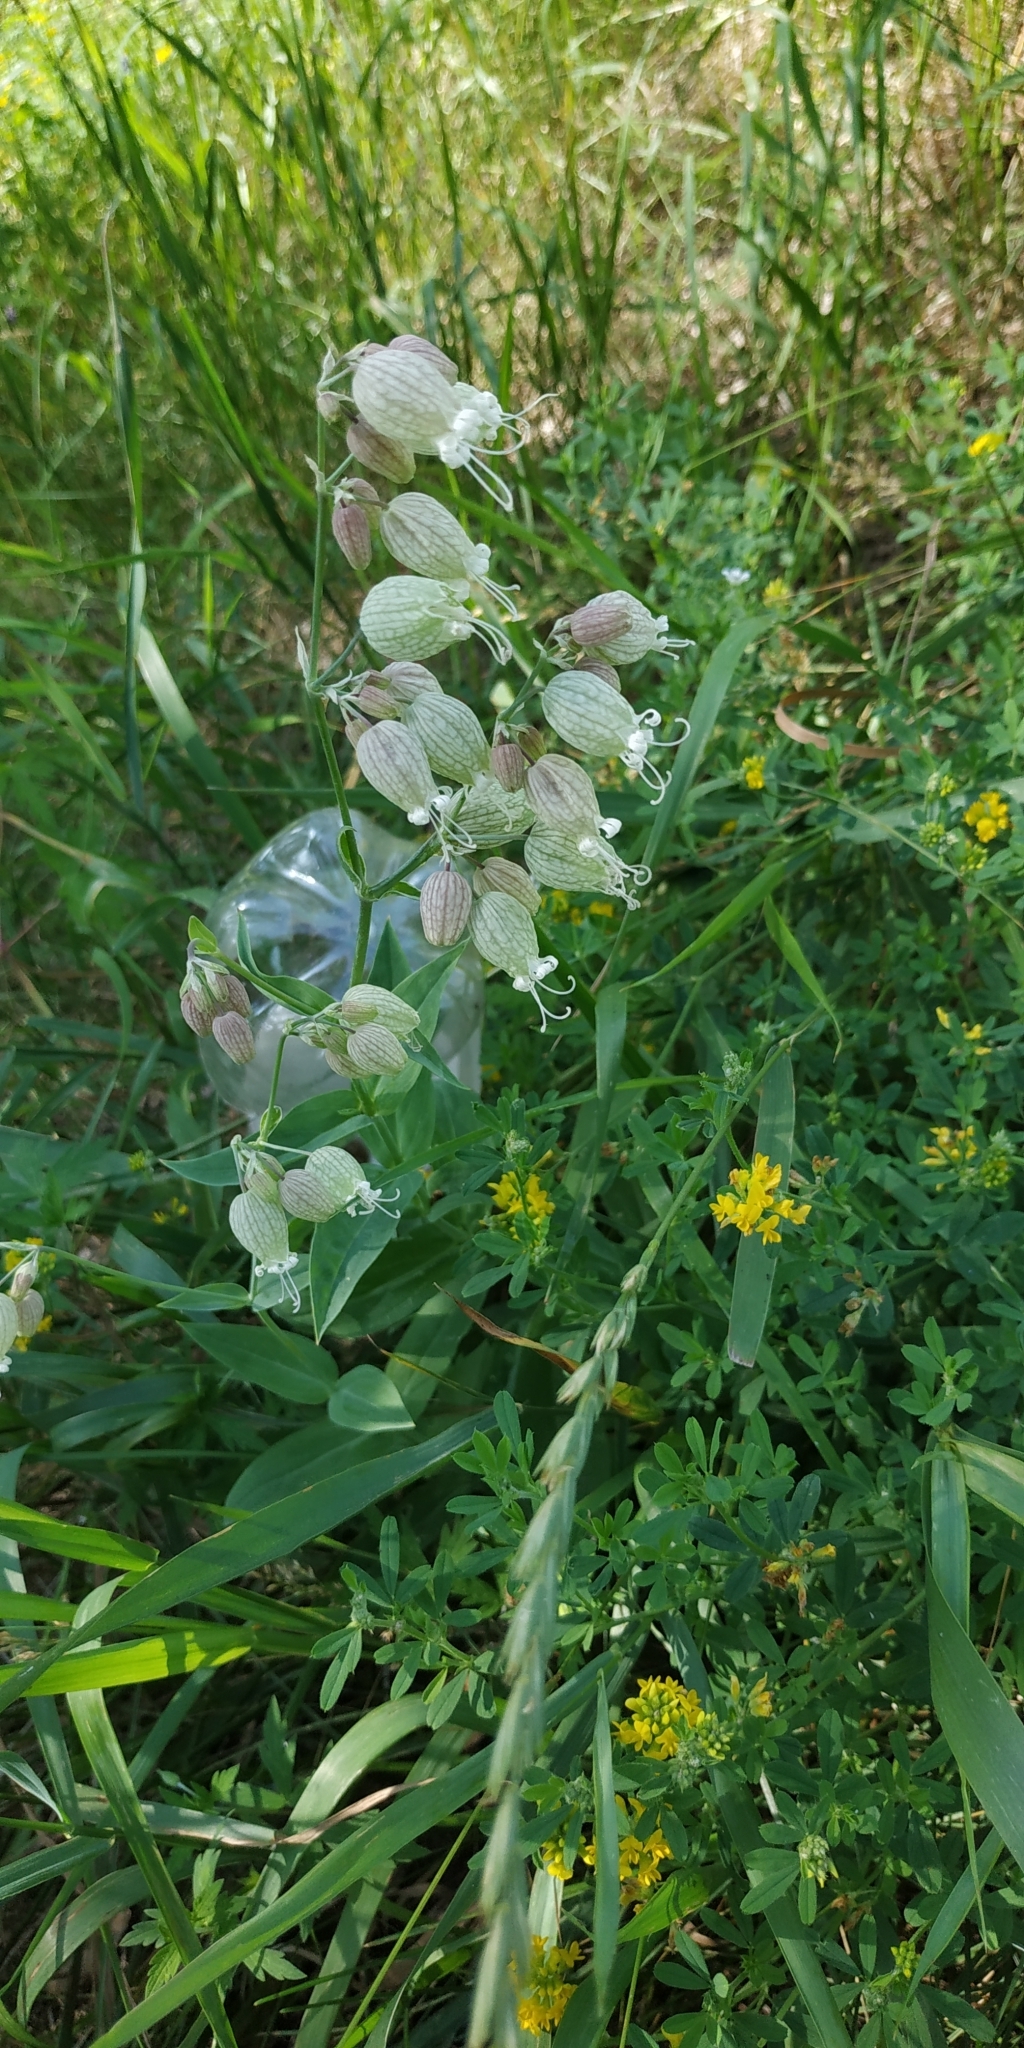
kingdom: Plantae
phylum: Tracheophyta
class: Magnoliopsida
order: Caryophyllales
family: Caryophyllaceae
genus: Silene
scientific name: Silene vulgaris
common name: Bladder campion
